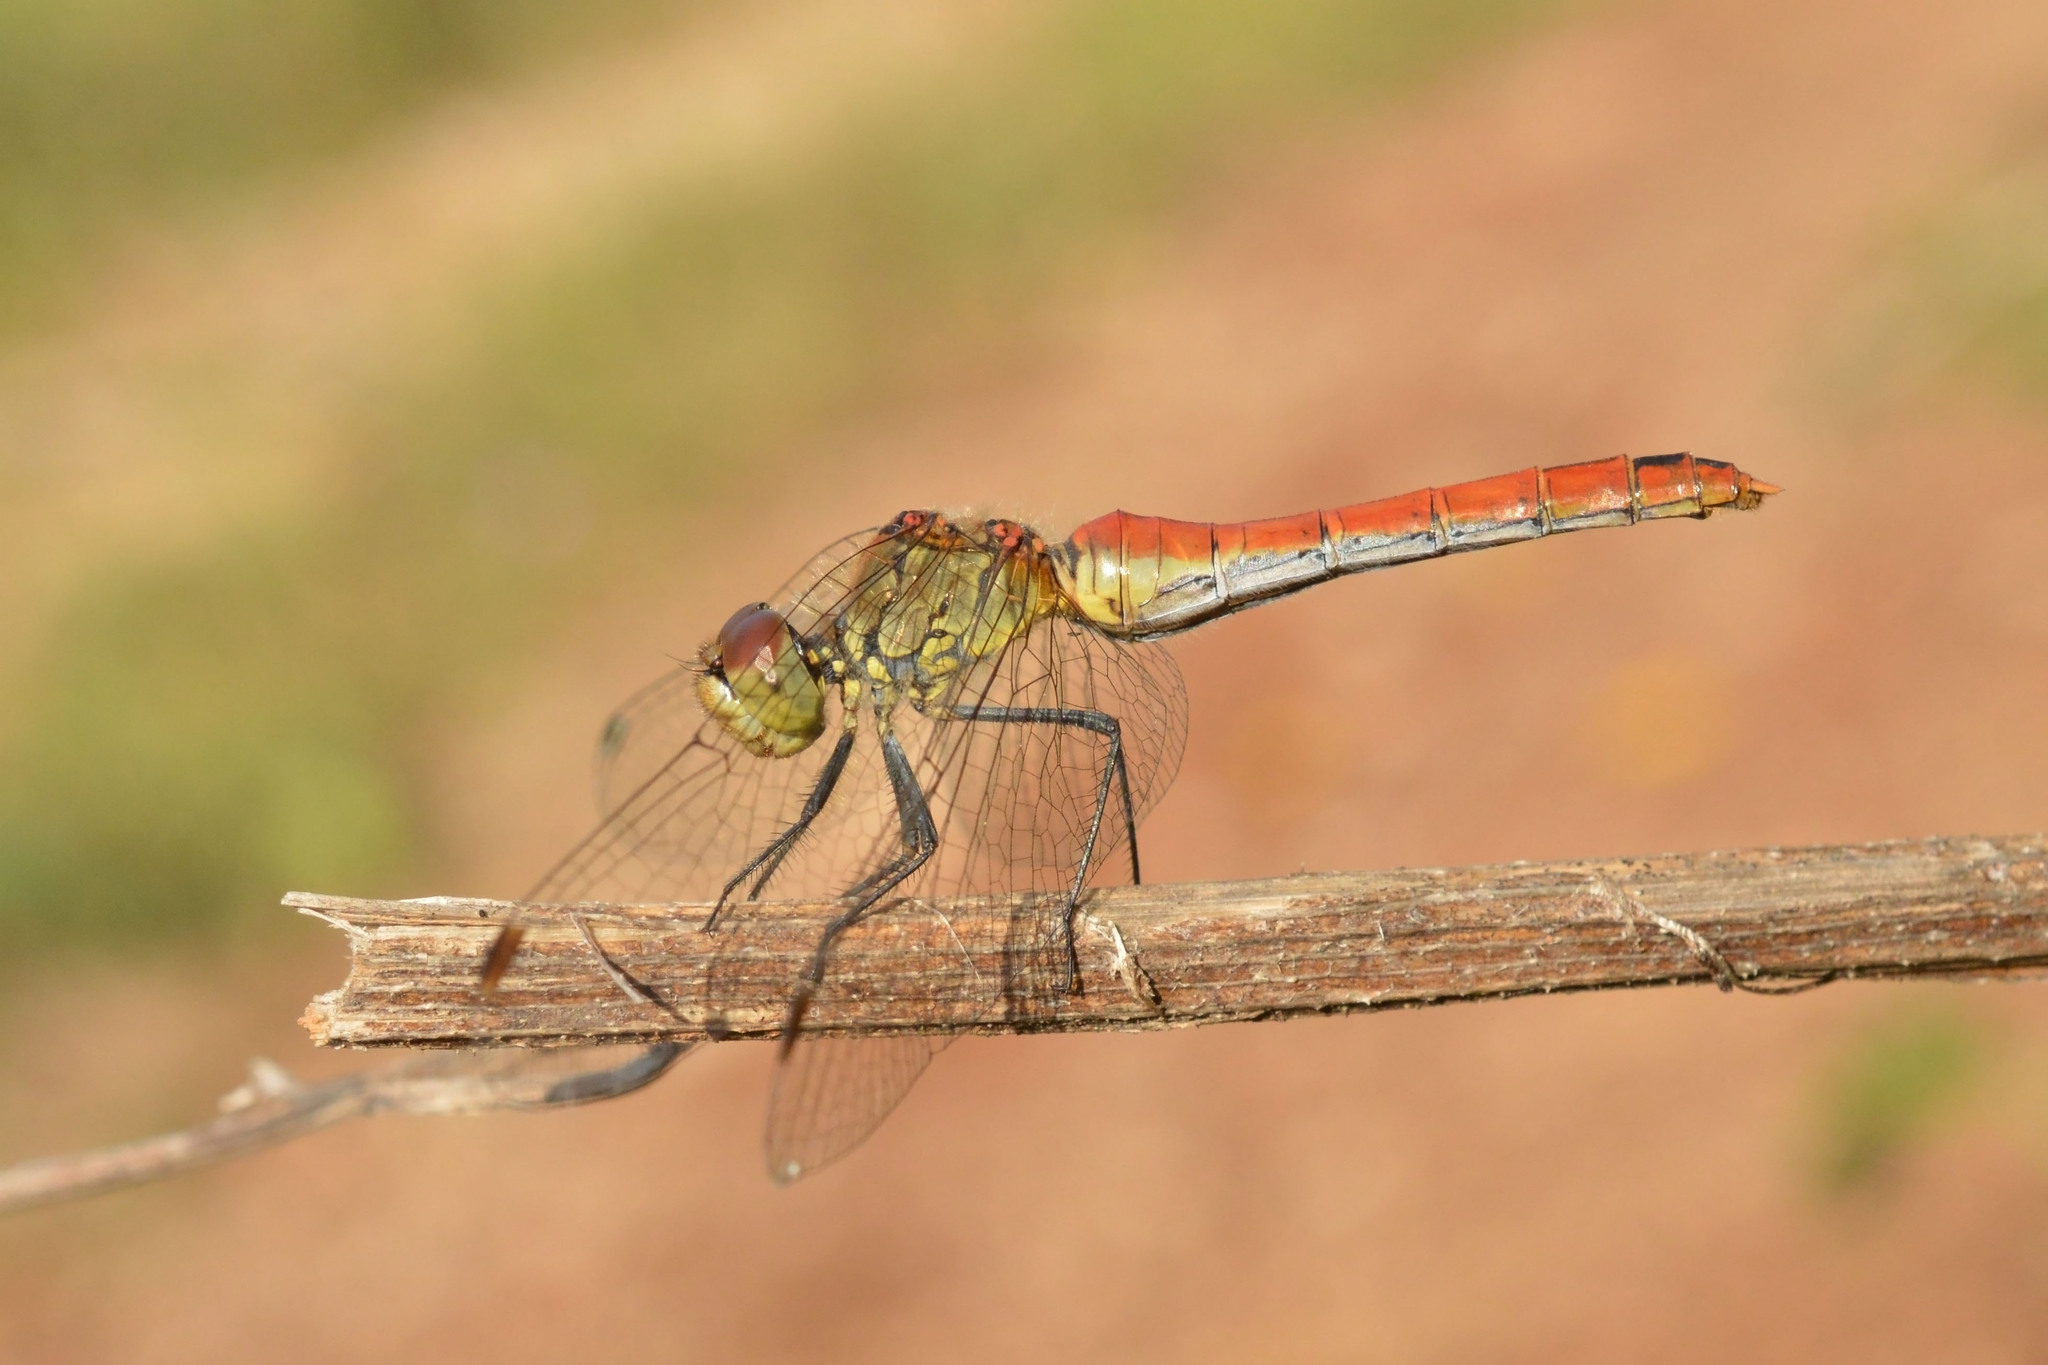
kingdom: Animalia
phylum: Arthropoda
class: Insecta
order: Odonata
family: Libellulidae
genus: Sympetrum
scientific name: Sympetrum sanguineum
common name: Ruddy darter
